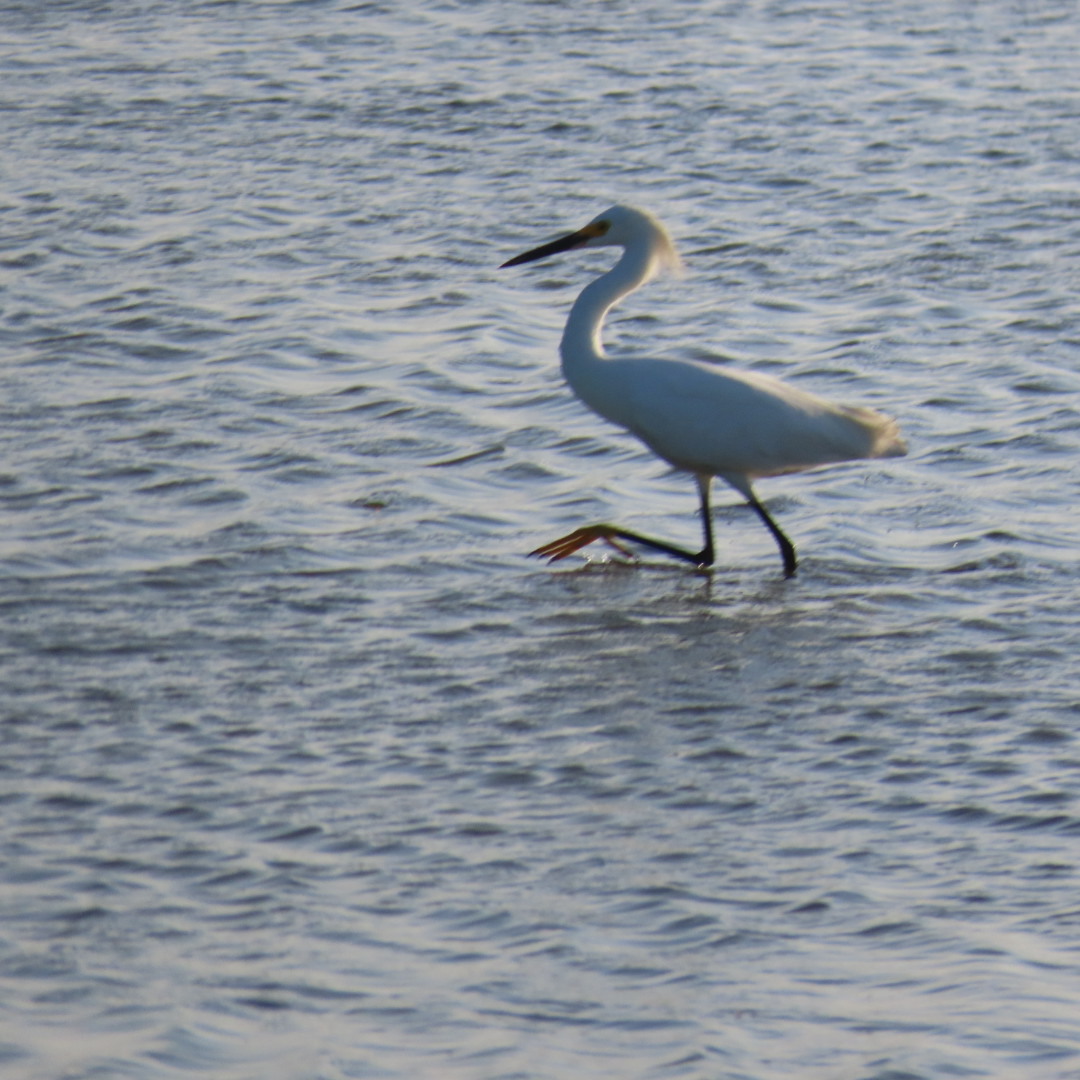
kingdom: Animalia
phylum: Chordata
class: Aves
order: Pelecaniformes
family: Ardeidae
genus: Egretta
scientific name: Egretta thula
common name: Snowy egret
